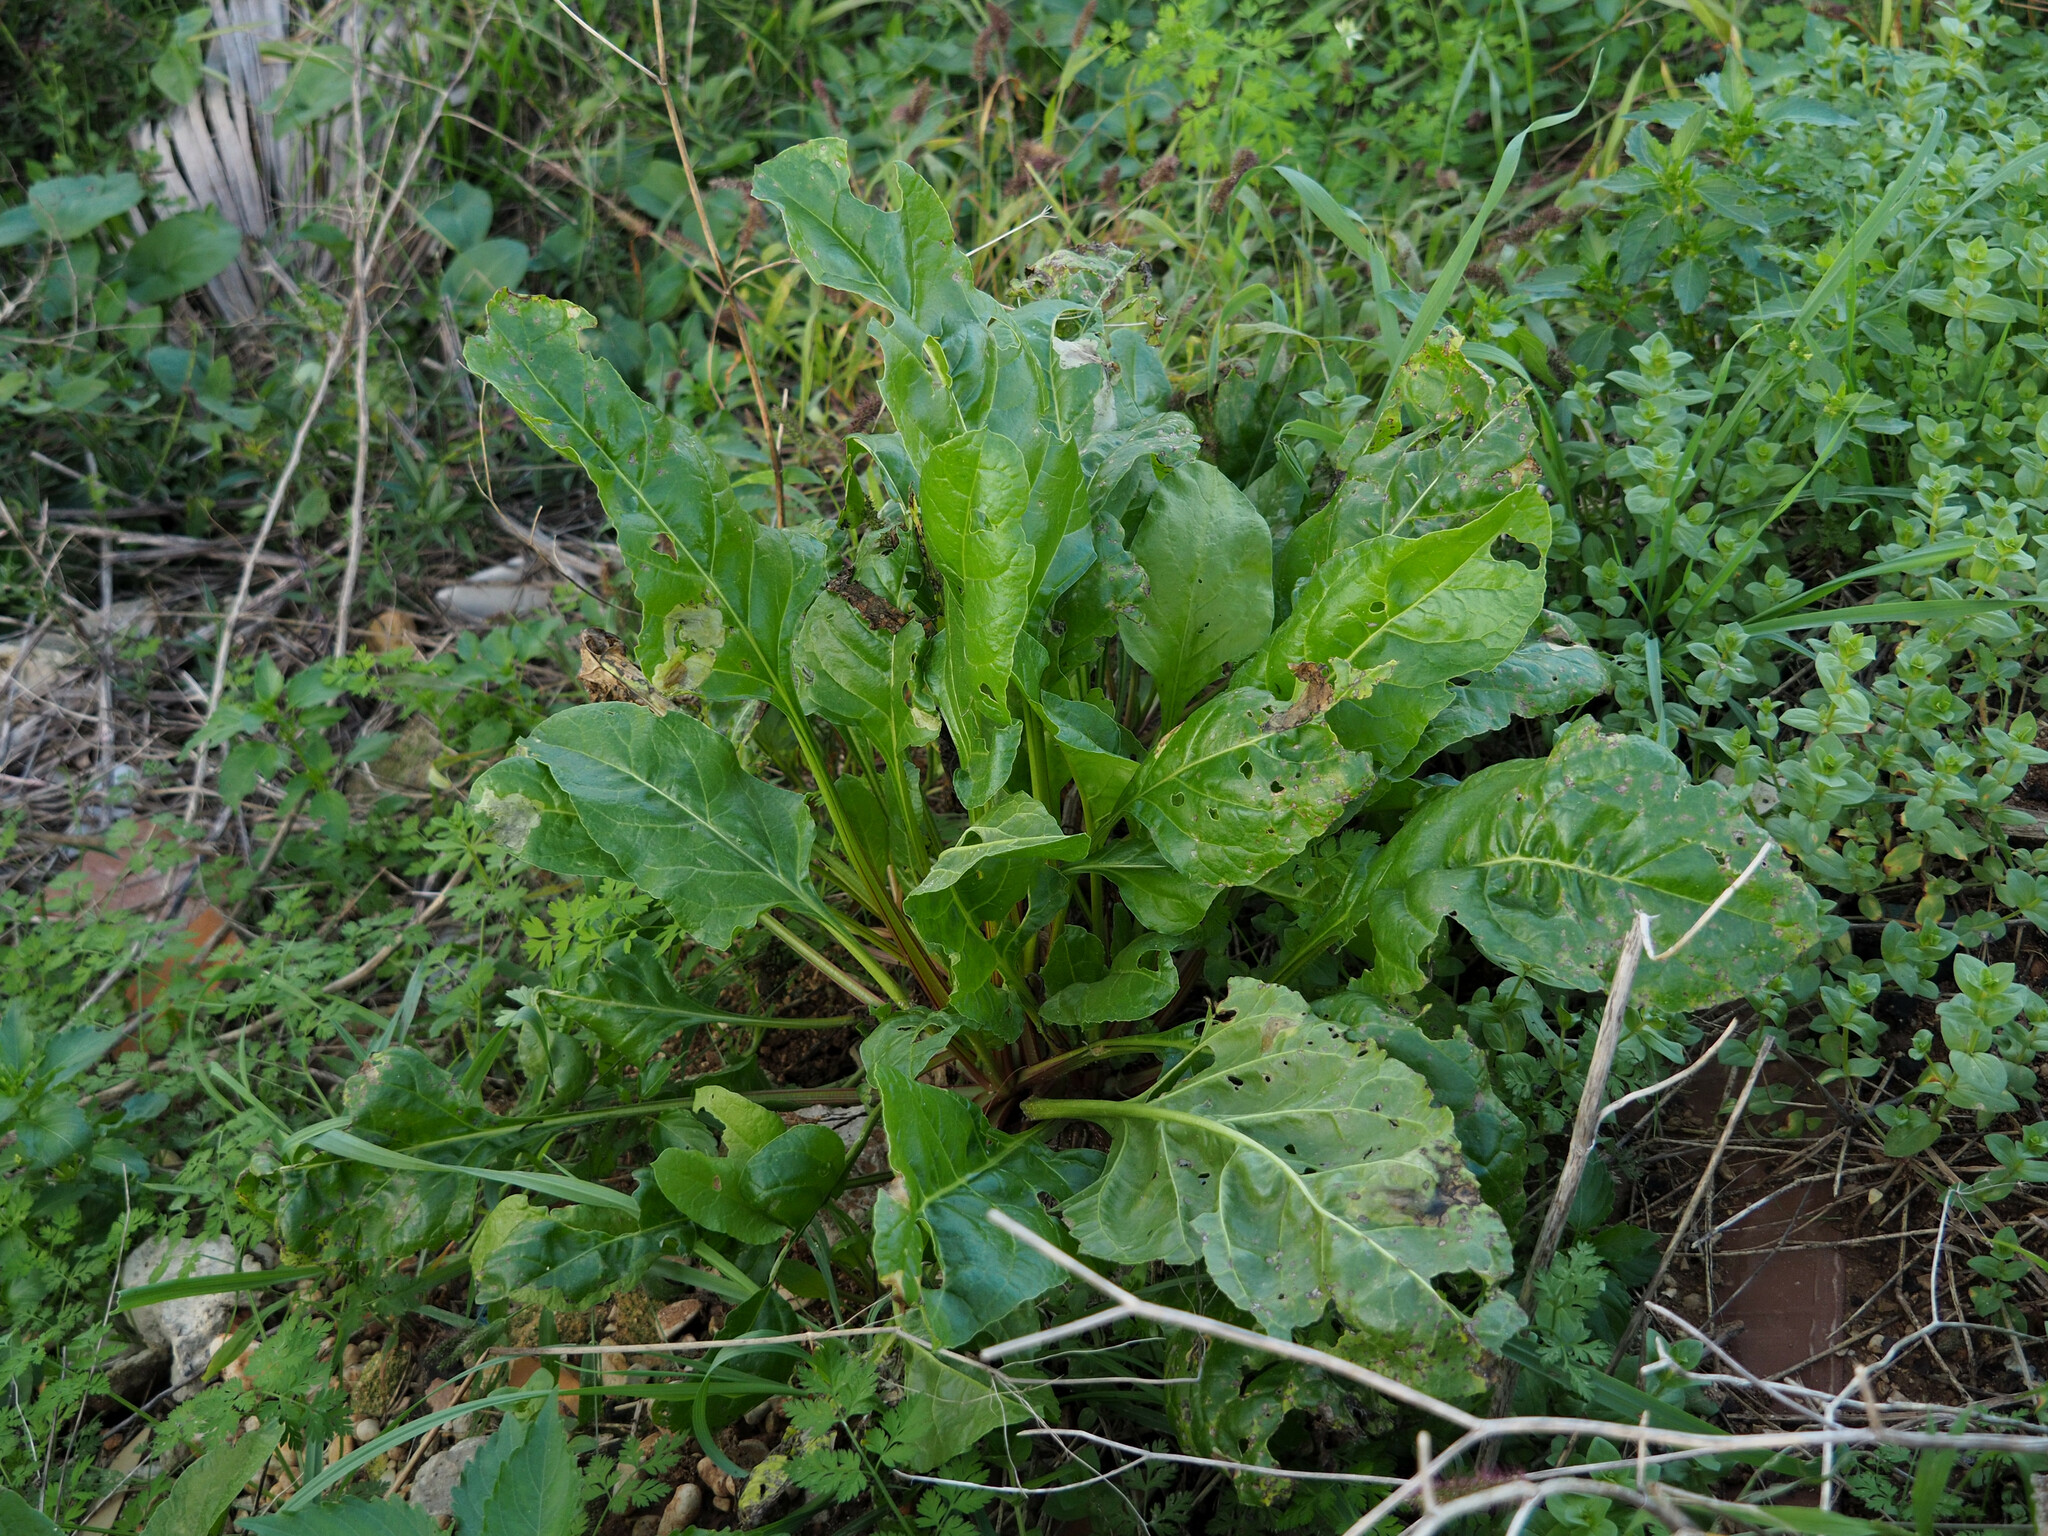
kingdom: Plantae
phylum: Tracheophyta
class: Magnoliopsida
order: Caryophyllales
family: Amaranthaceae
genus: Beta
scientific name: Beta vulgaris
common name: Beet
